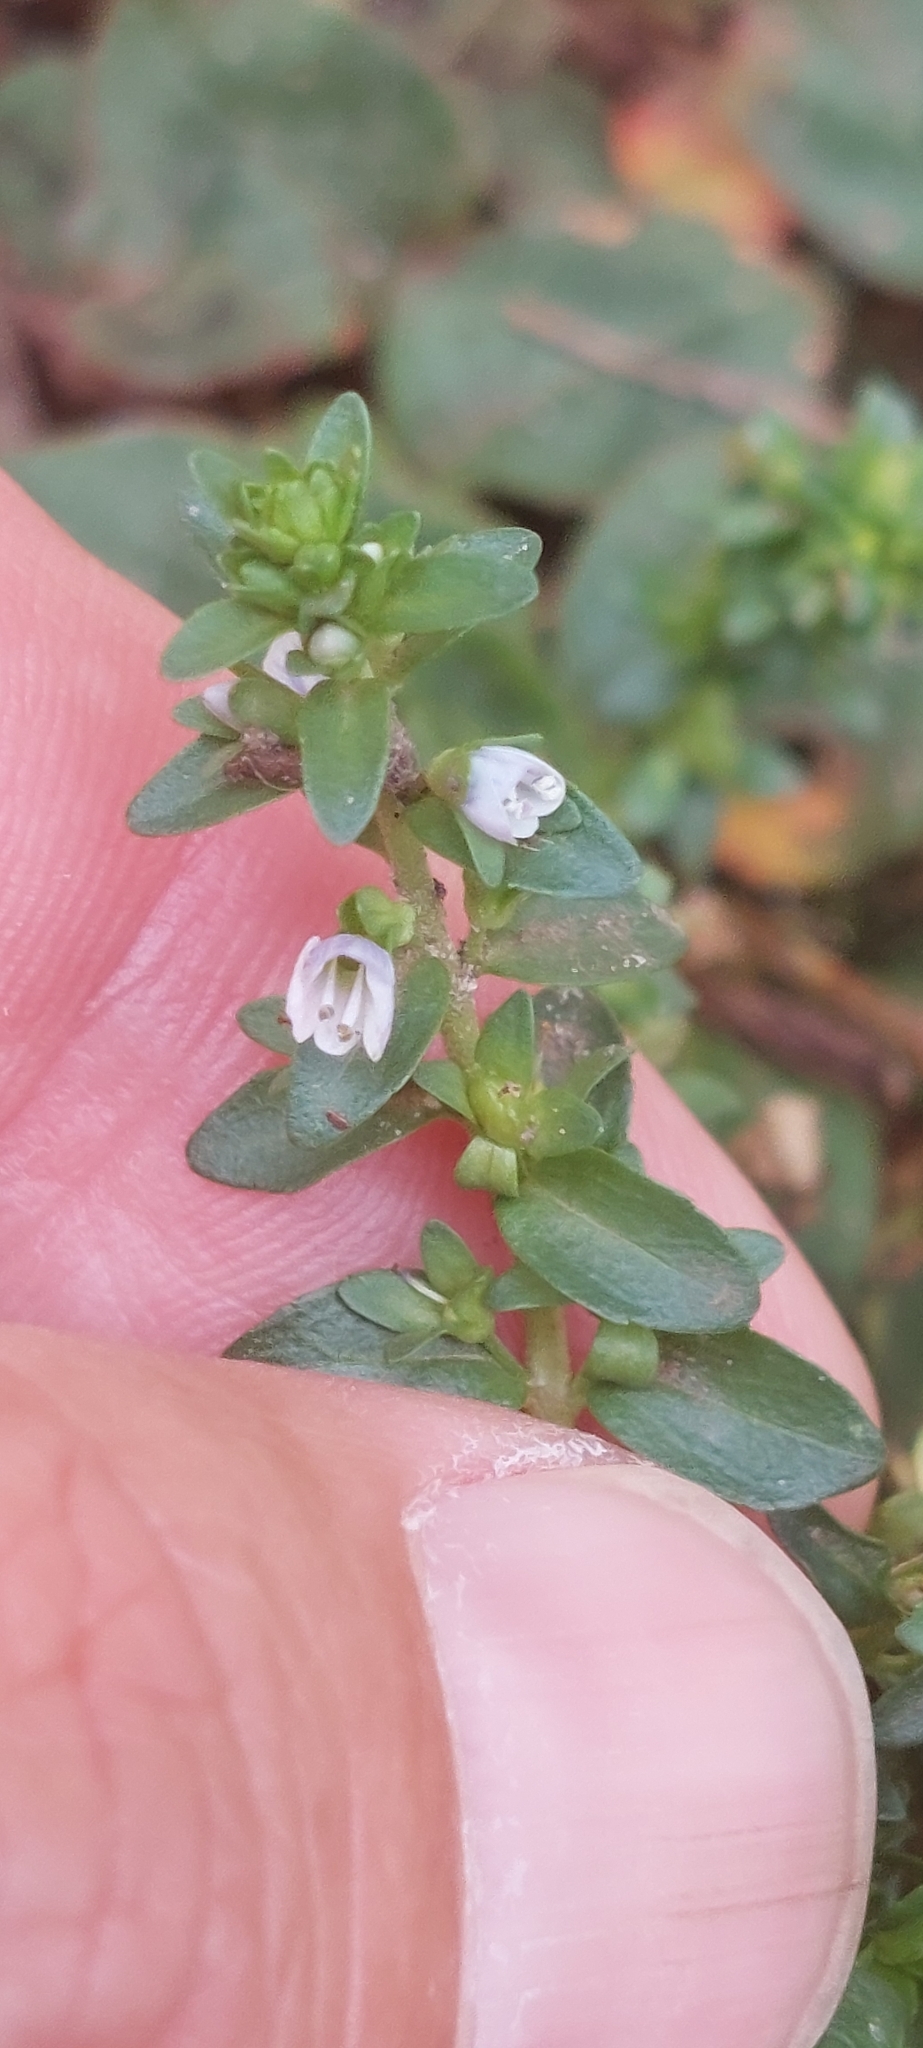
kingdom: Plantae
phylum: Tracheophyta
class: Magnoliopsida
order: Lamiales
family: Plantaginaceae
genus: Veronica
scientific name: Veronica serpyllifolia
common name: Thyme-leaved speedwell
